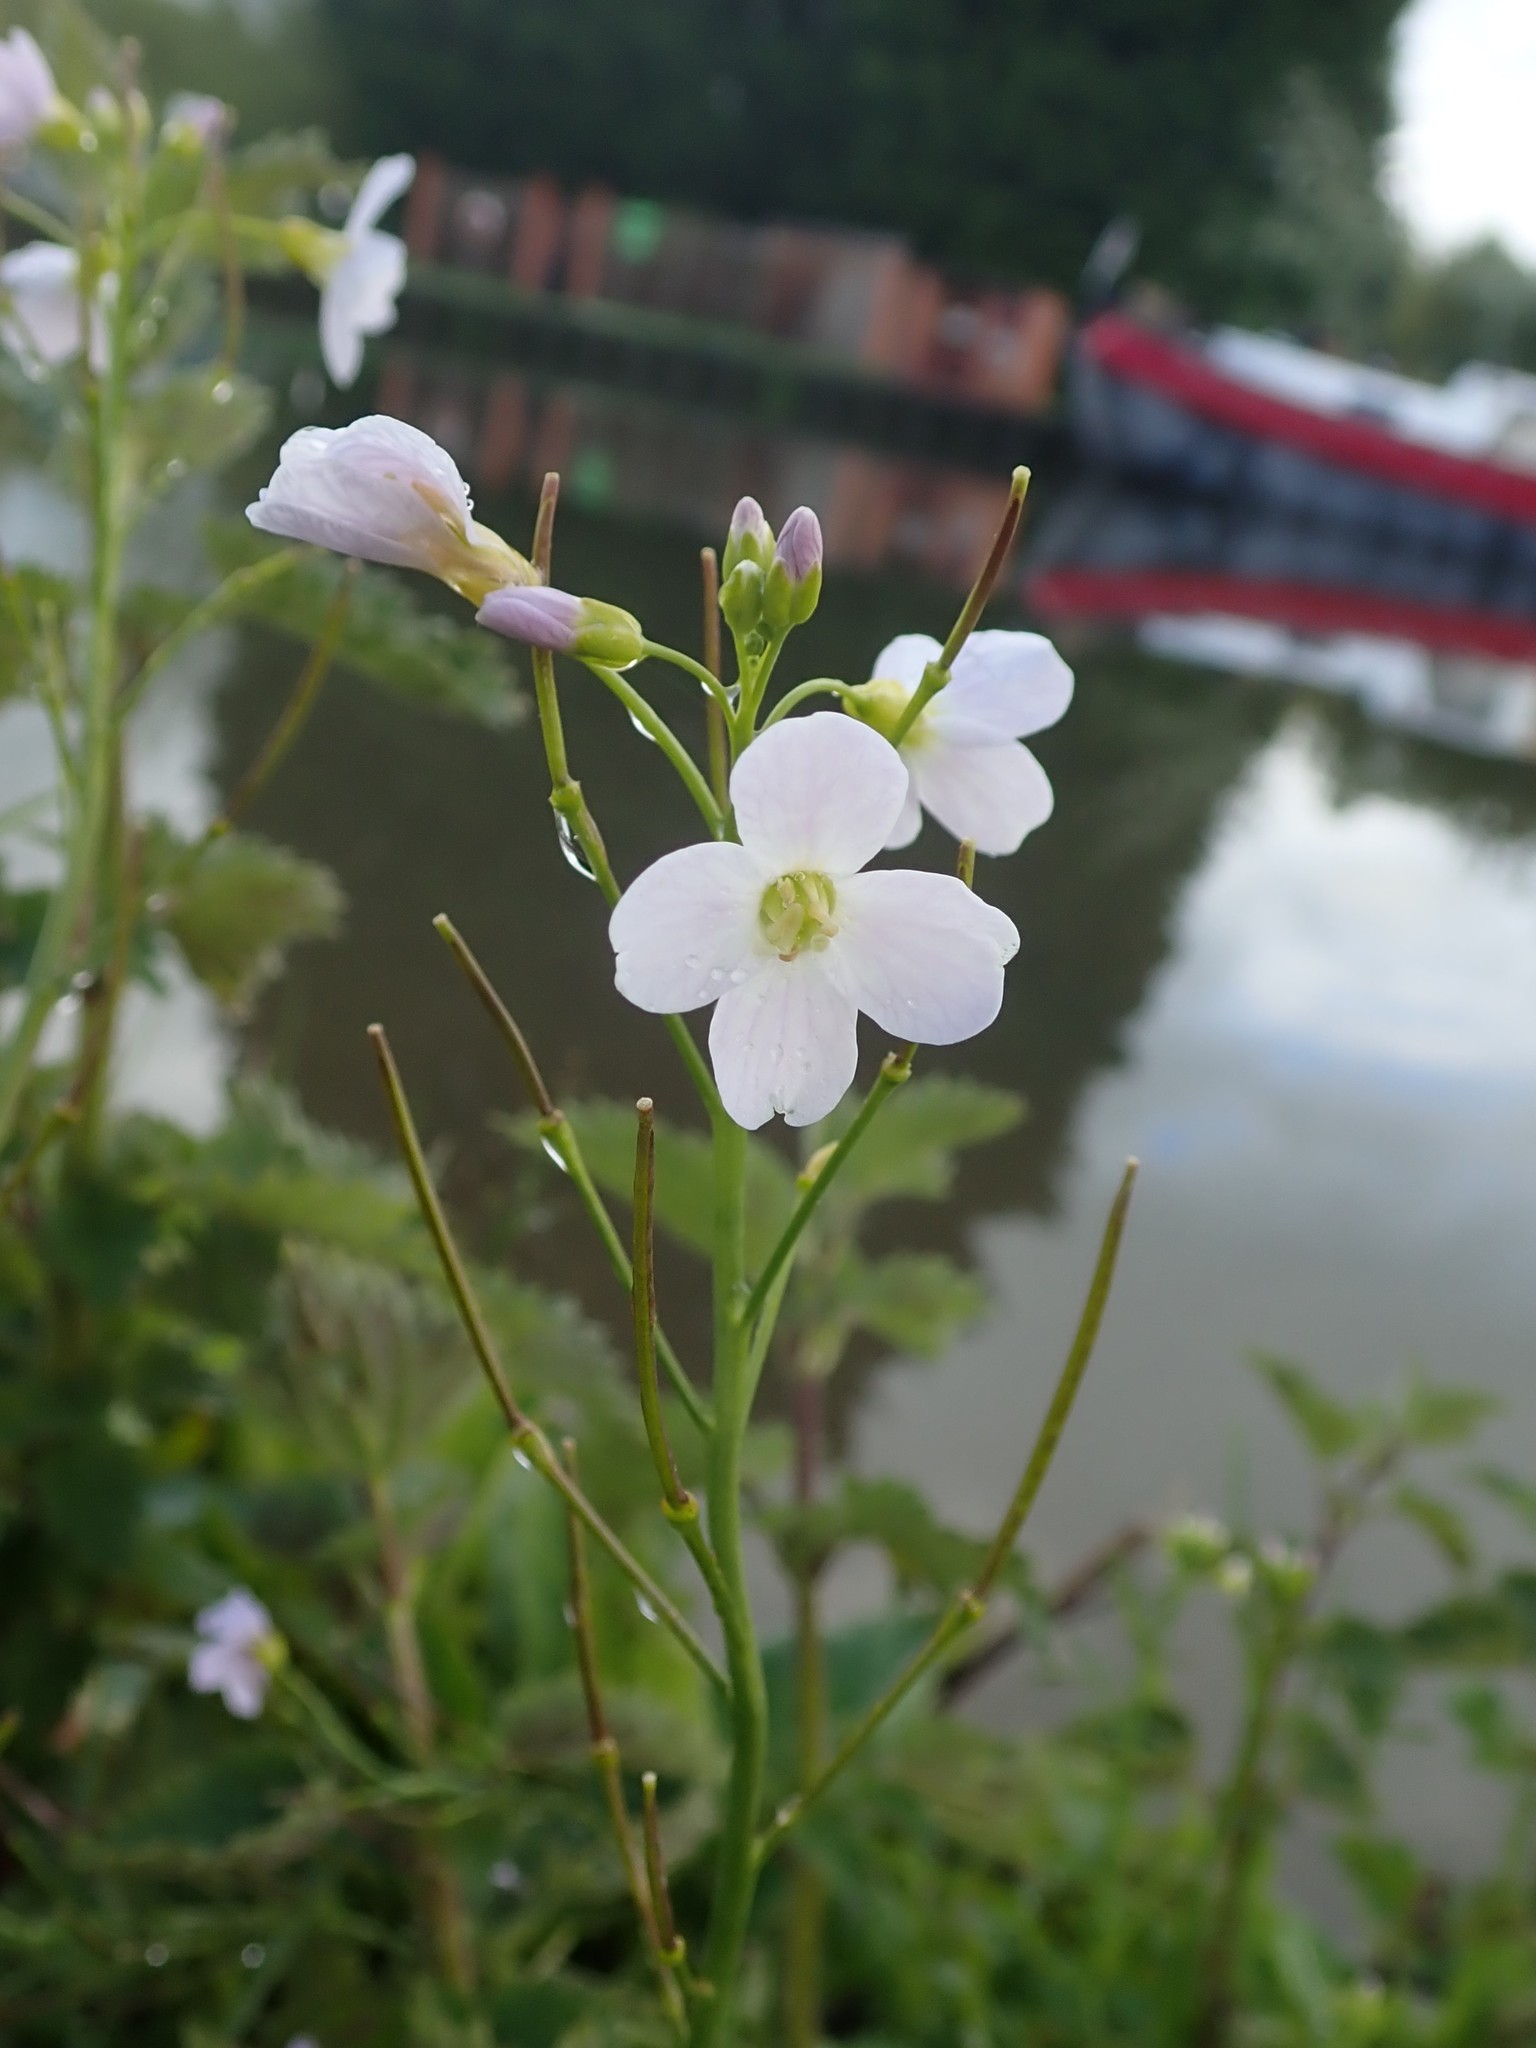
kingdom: Plantae
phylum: Tracheophyta
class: Magnoliopsida
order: Brassicales
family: Brassicaceae
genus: Cardamine
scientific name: Cardamine pratensis
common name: Cuckoo flower
